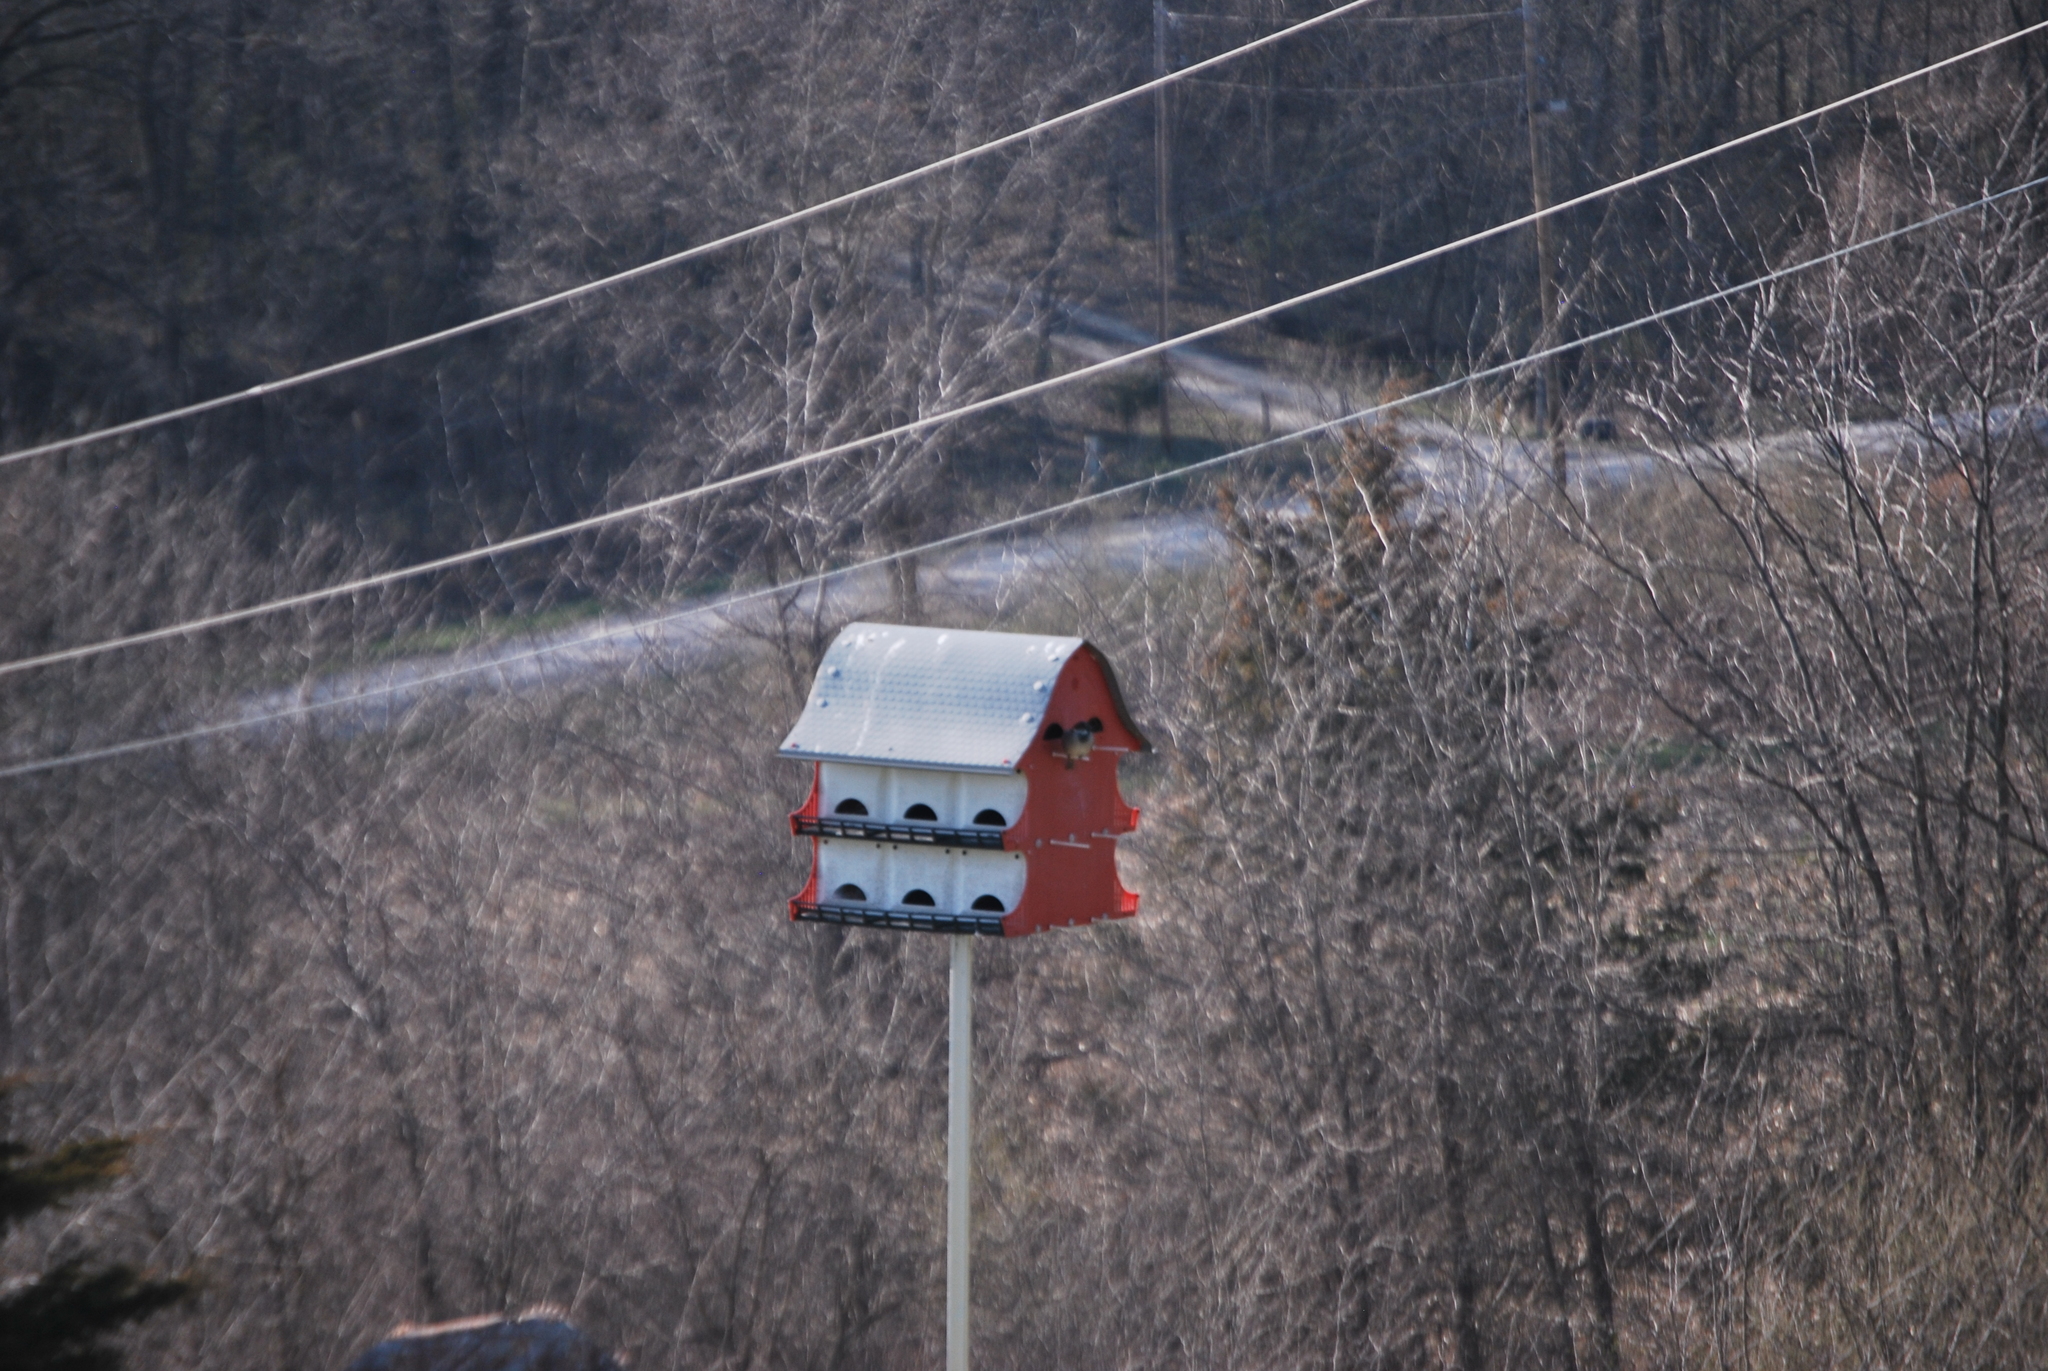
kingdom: Animalia
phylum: Chordata
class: Aves
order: Passeriformes
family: Passeridae
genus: Passer
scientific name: Passer domesticus
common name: House sparrow
